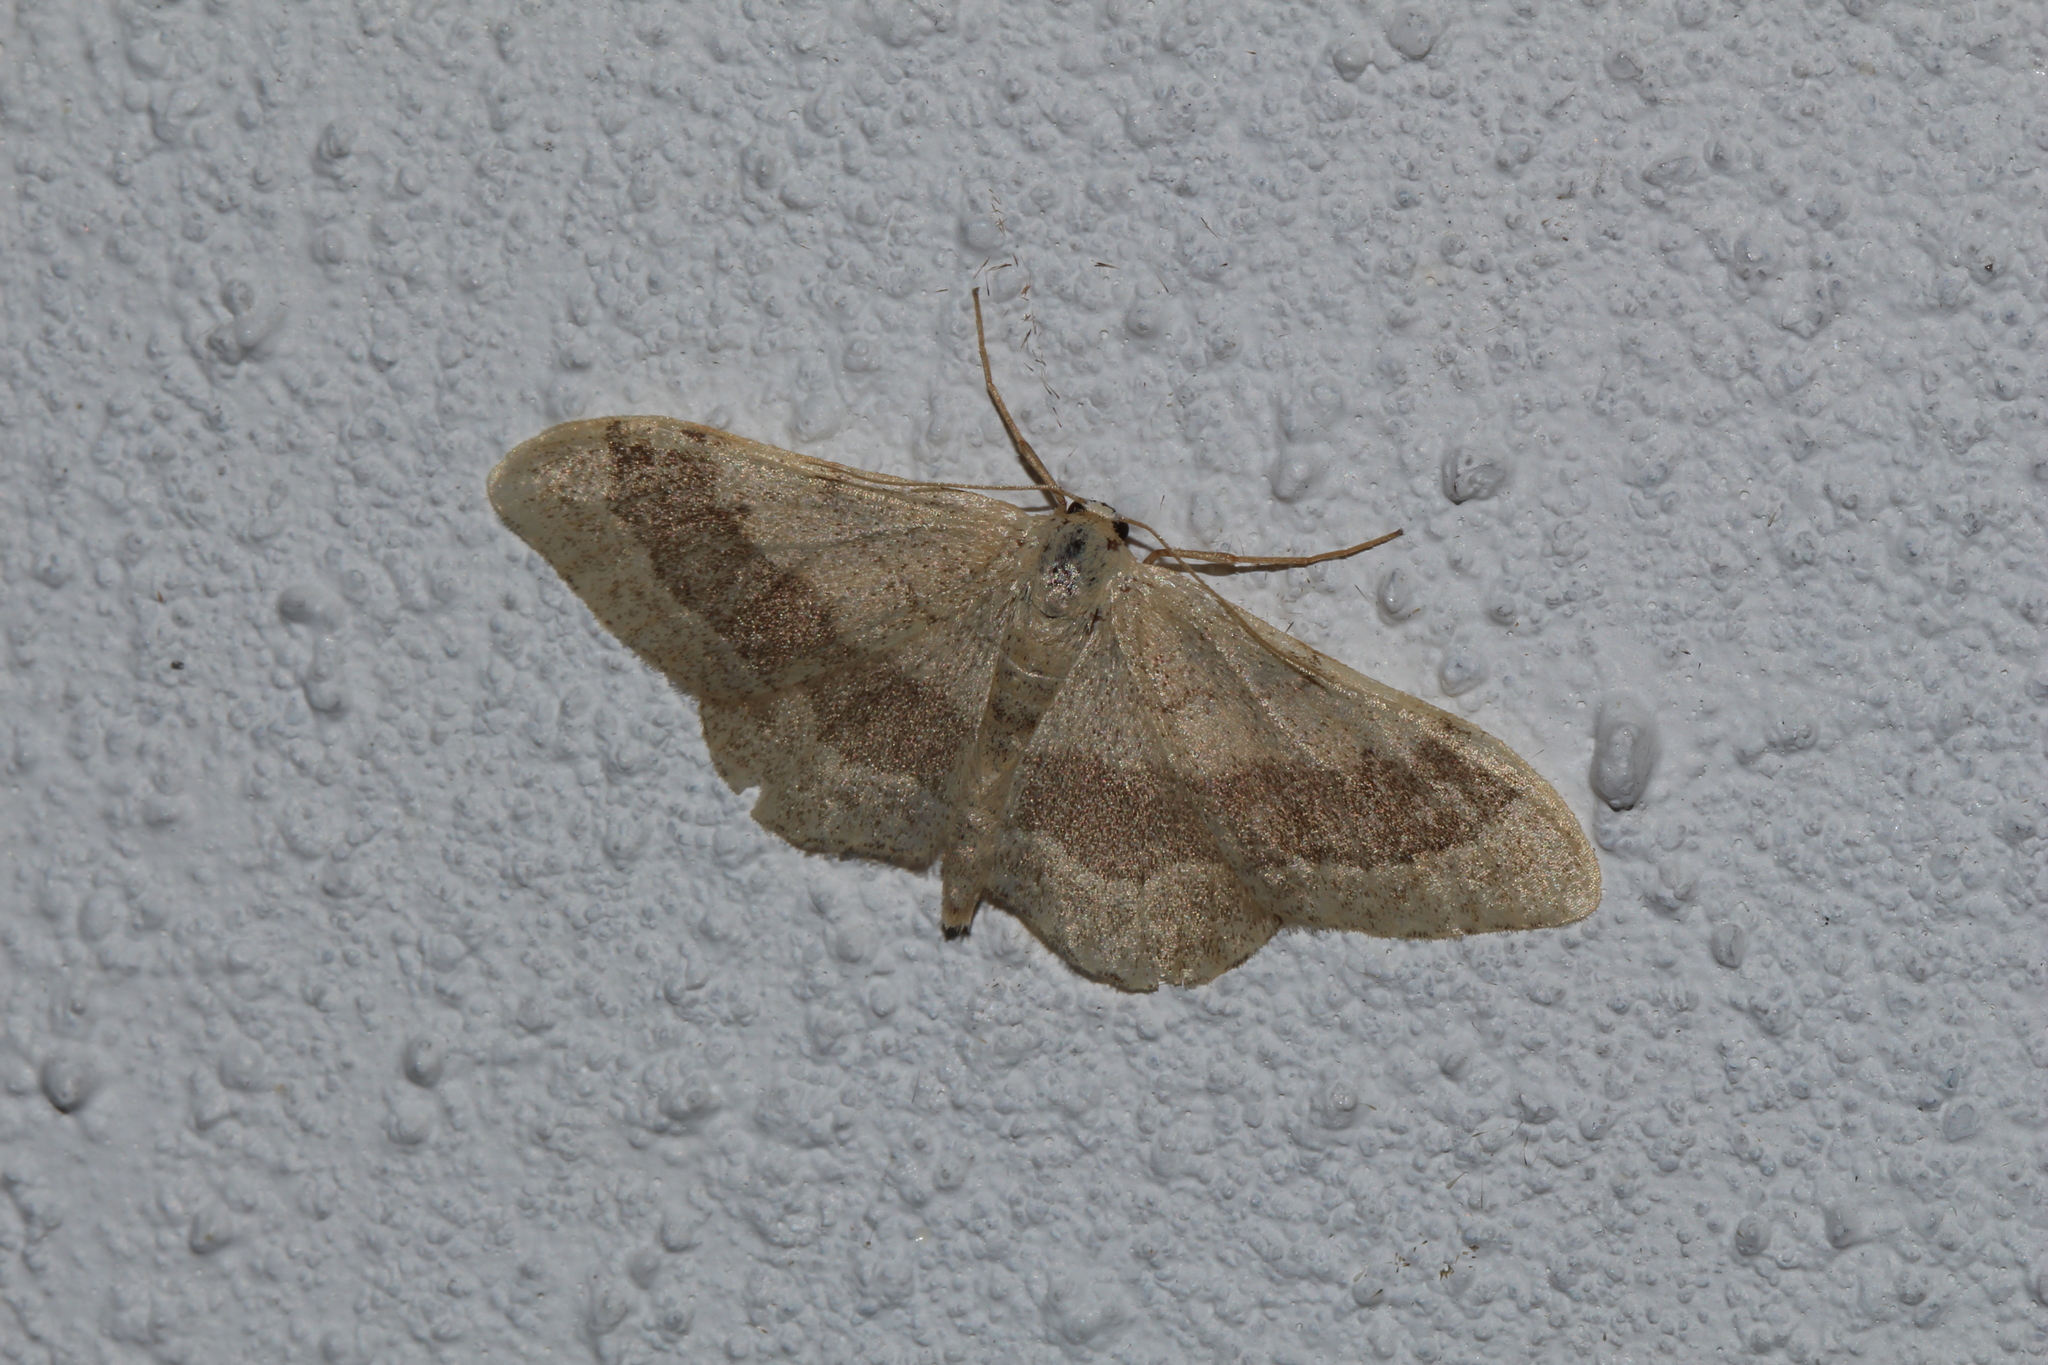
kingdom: Animalia
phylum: Arthropoda
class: Insecta
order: Lepidoptera
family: Geometridae
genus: Idaea
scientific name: Idaea aversata
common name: Riband wave
